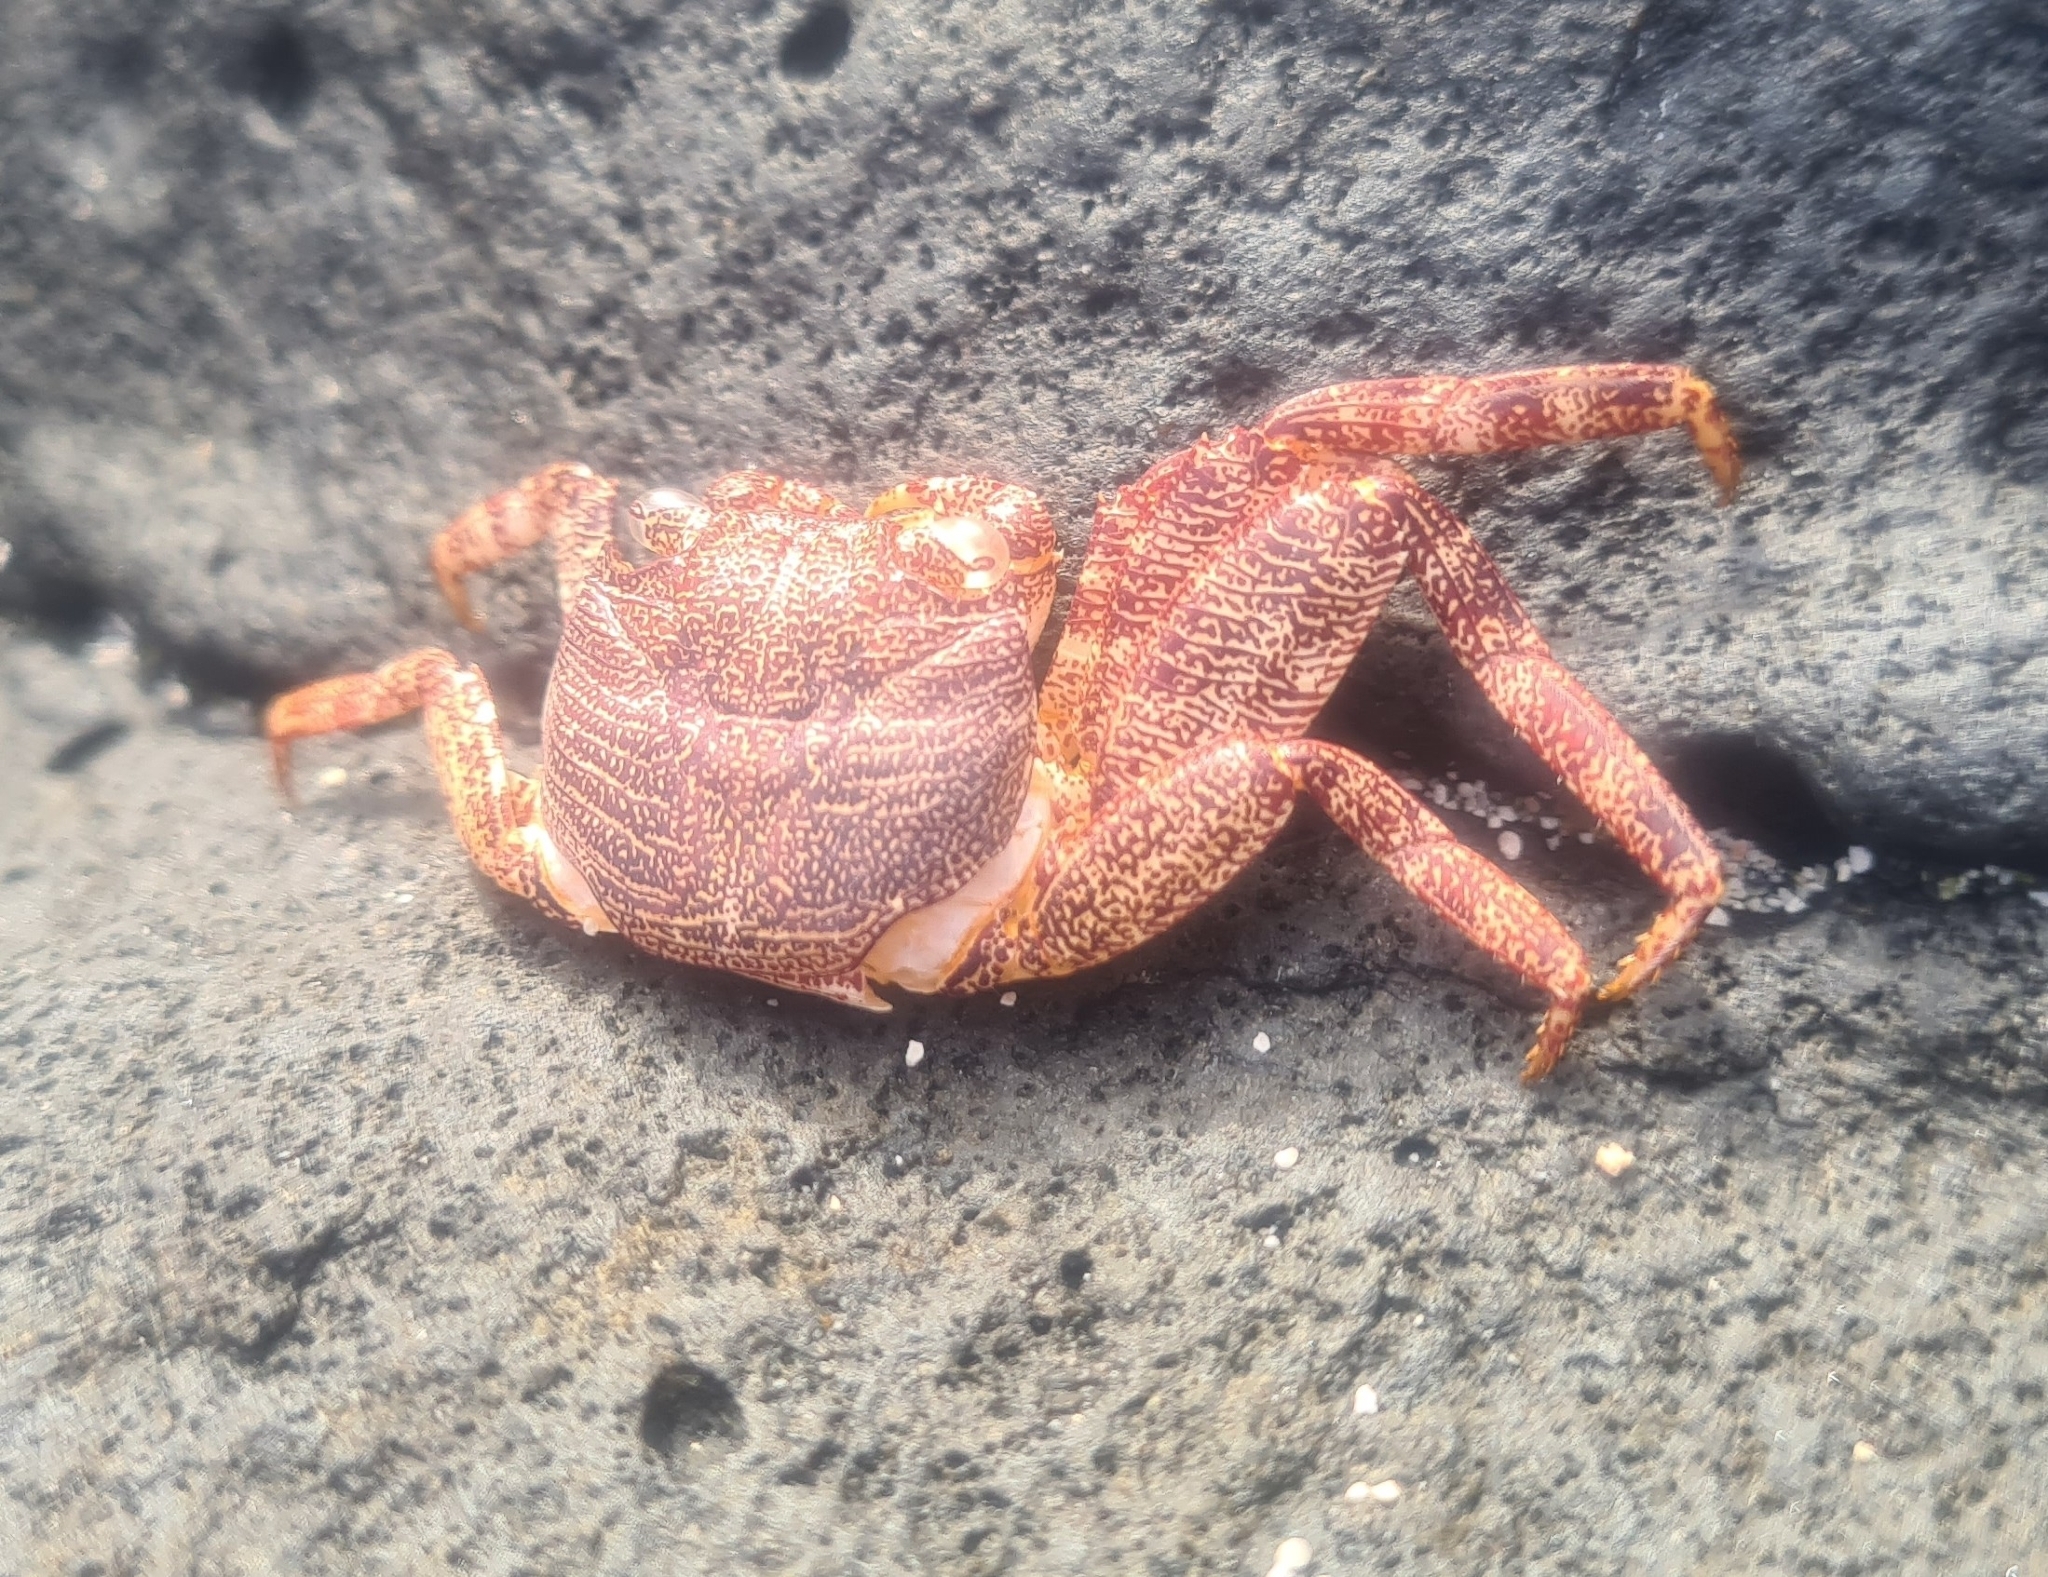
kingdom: Animalia
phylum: Arthropoda
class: Malacostraca
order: Decapoda
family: Grapsidae
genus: Grapsus
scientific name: Grapsus tenuicrustatus
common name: Natal lightfoot crab
